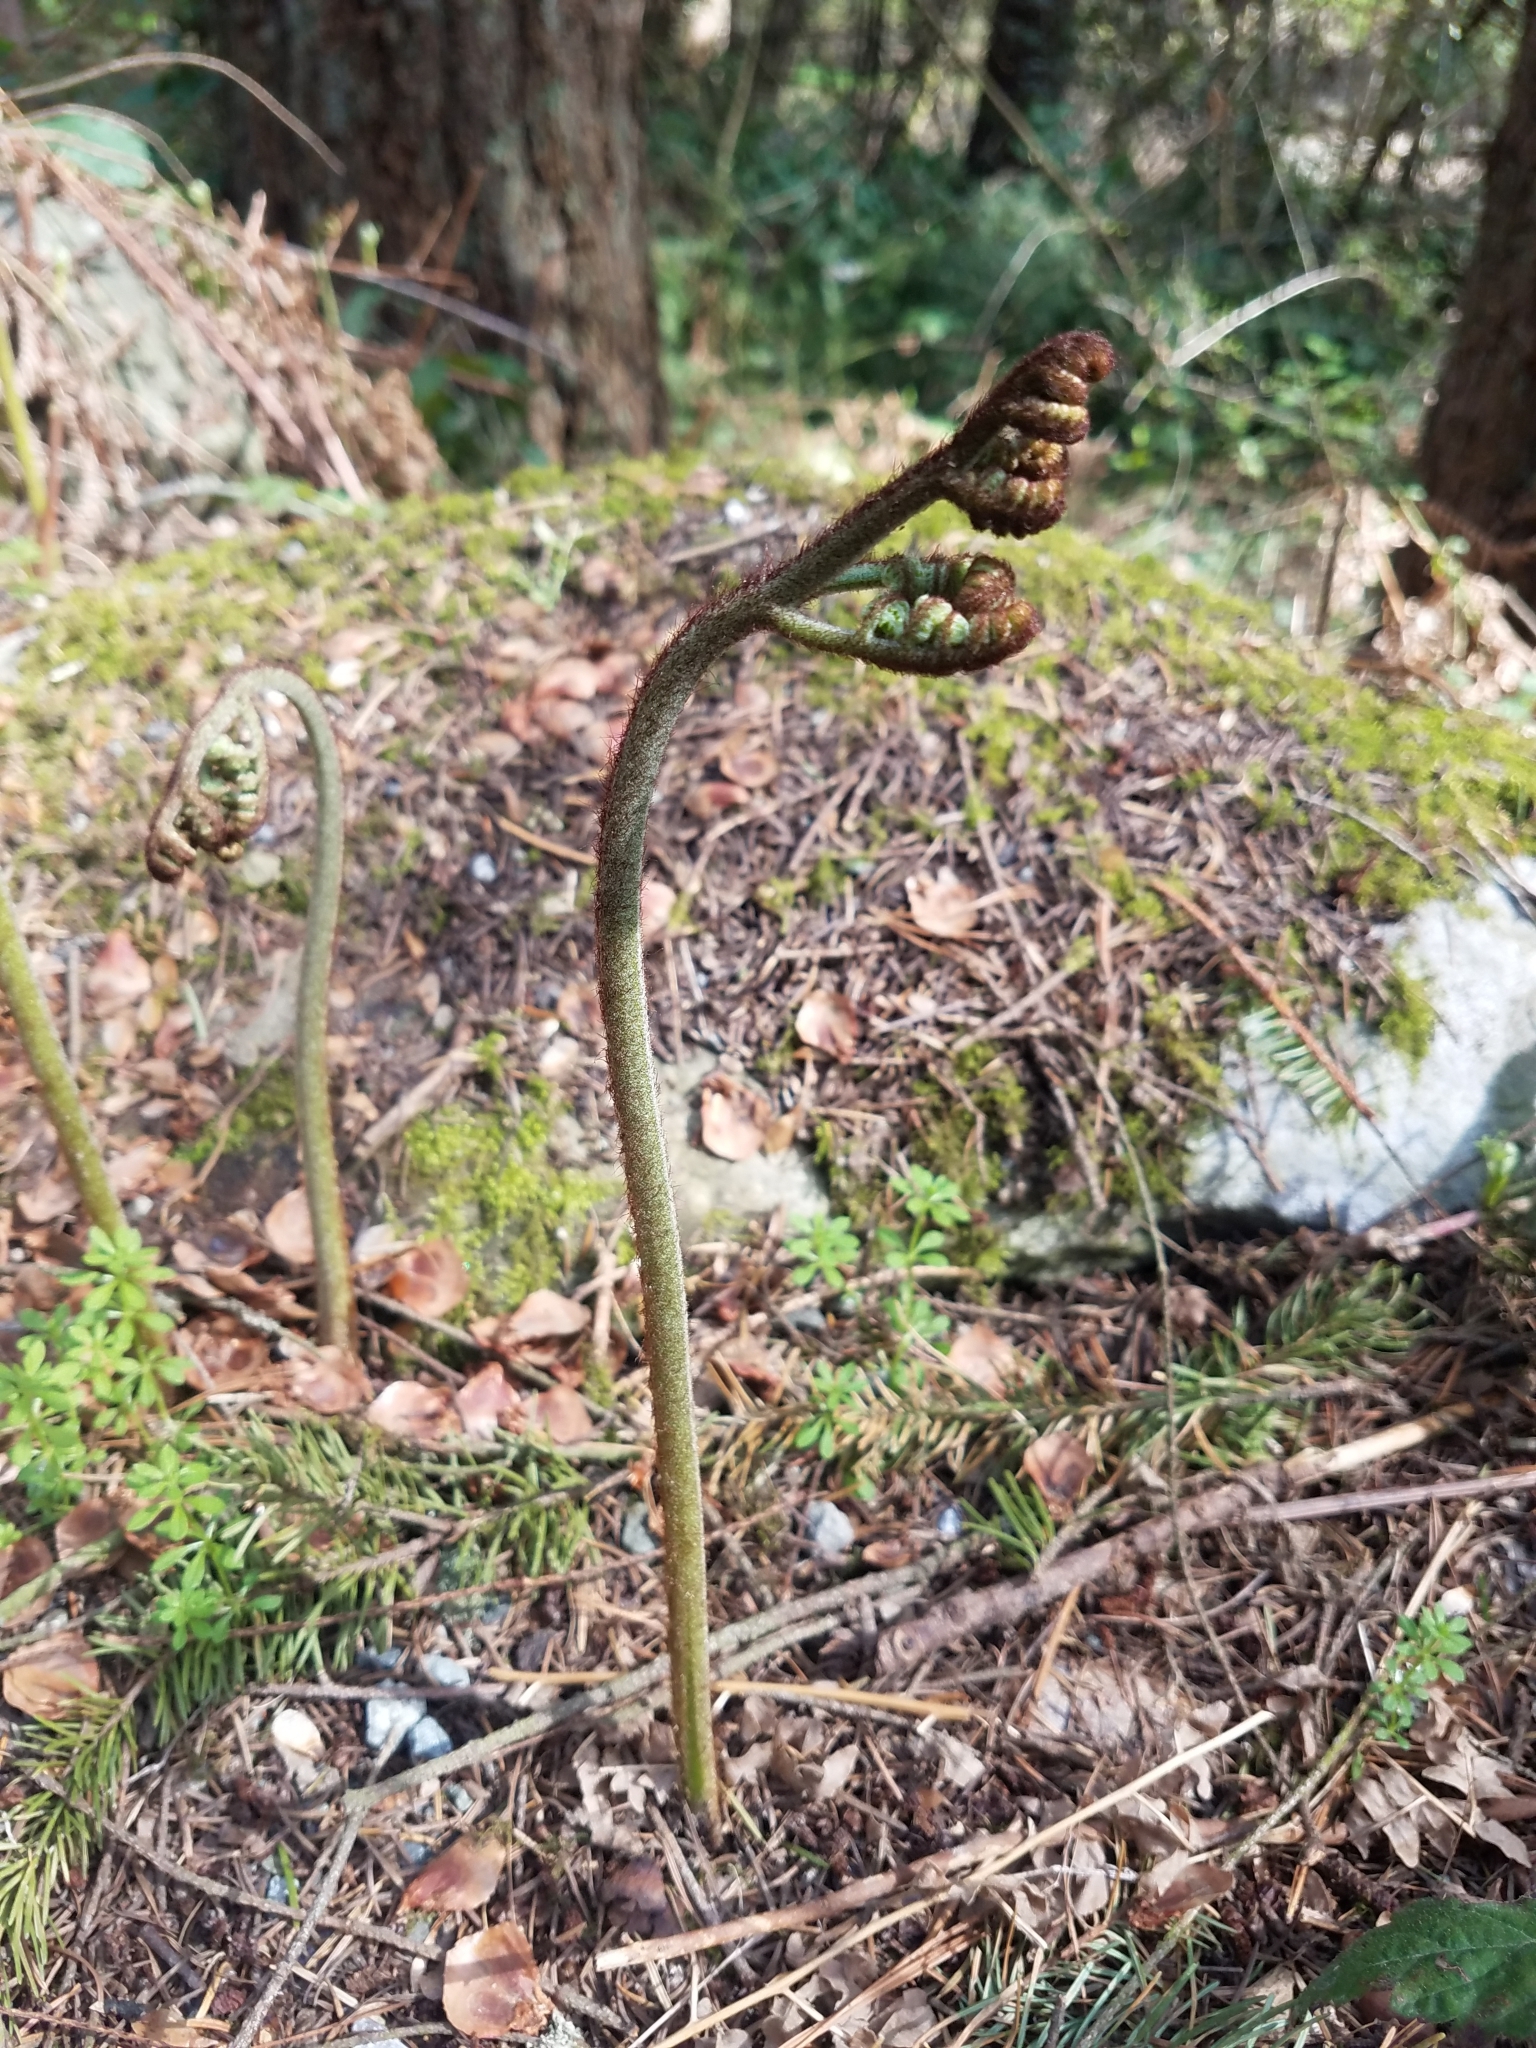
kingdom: Plantae
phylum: Tracheophyta
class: Polypodiopsida
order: Polypodiales
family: Dennstaedtiaceae
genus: Pteridium
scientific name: Pteridium aquilinum
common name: Bracken
